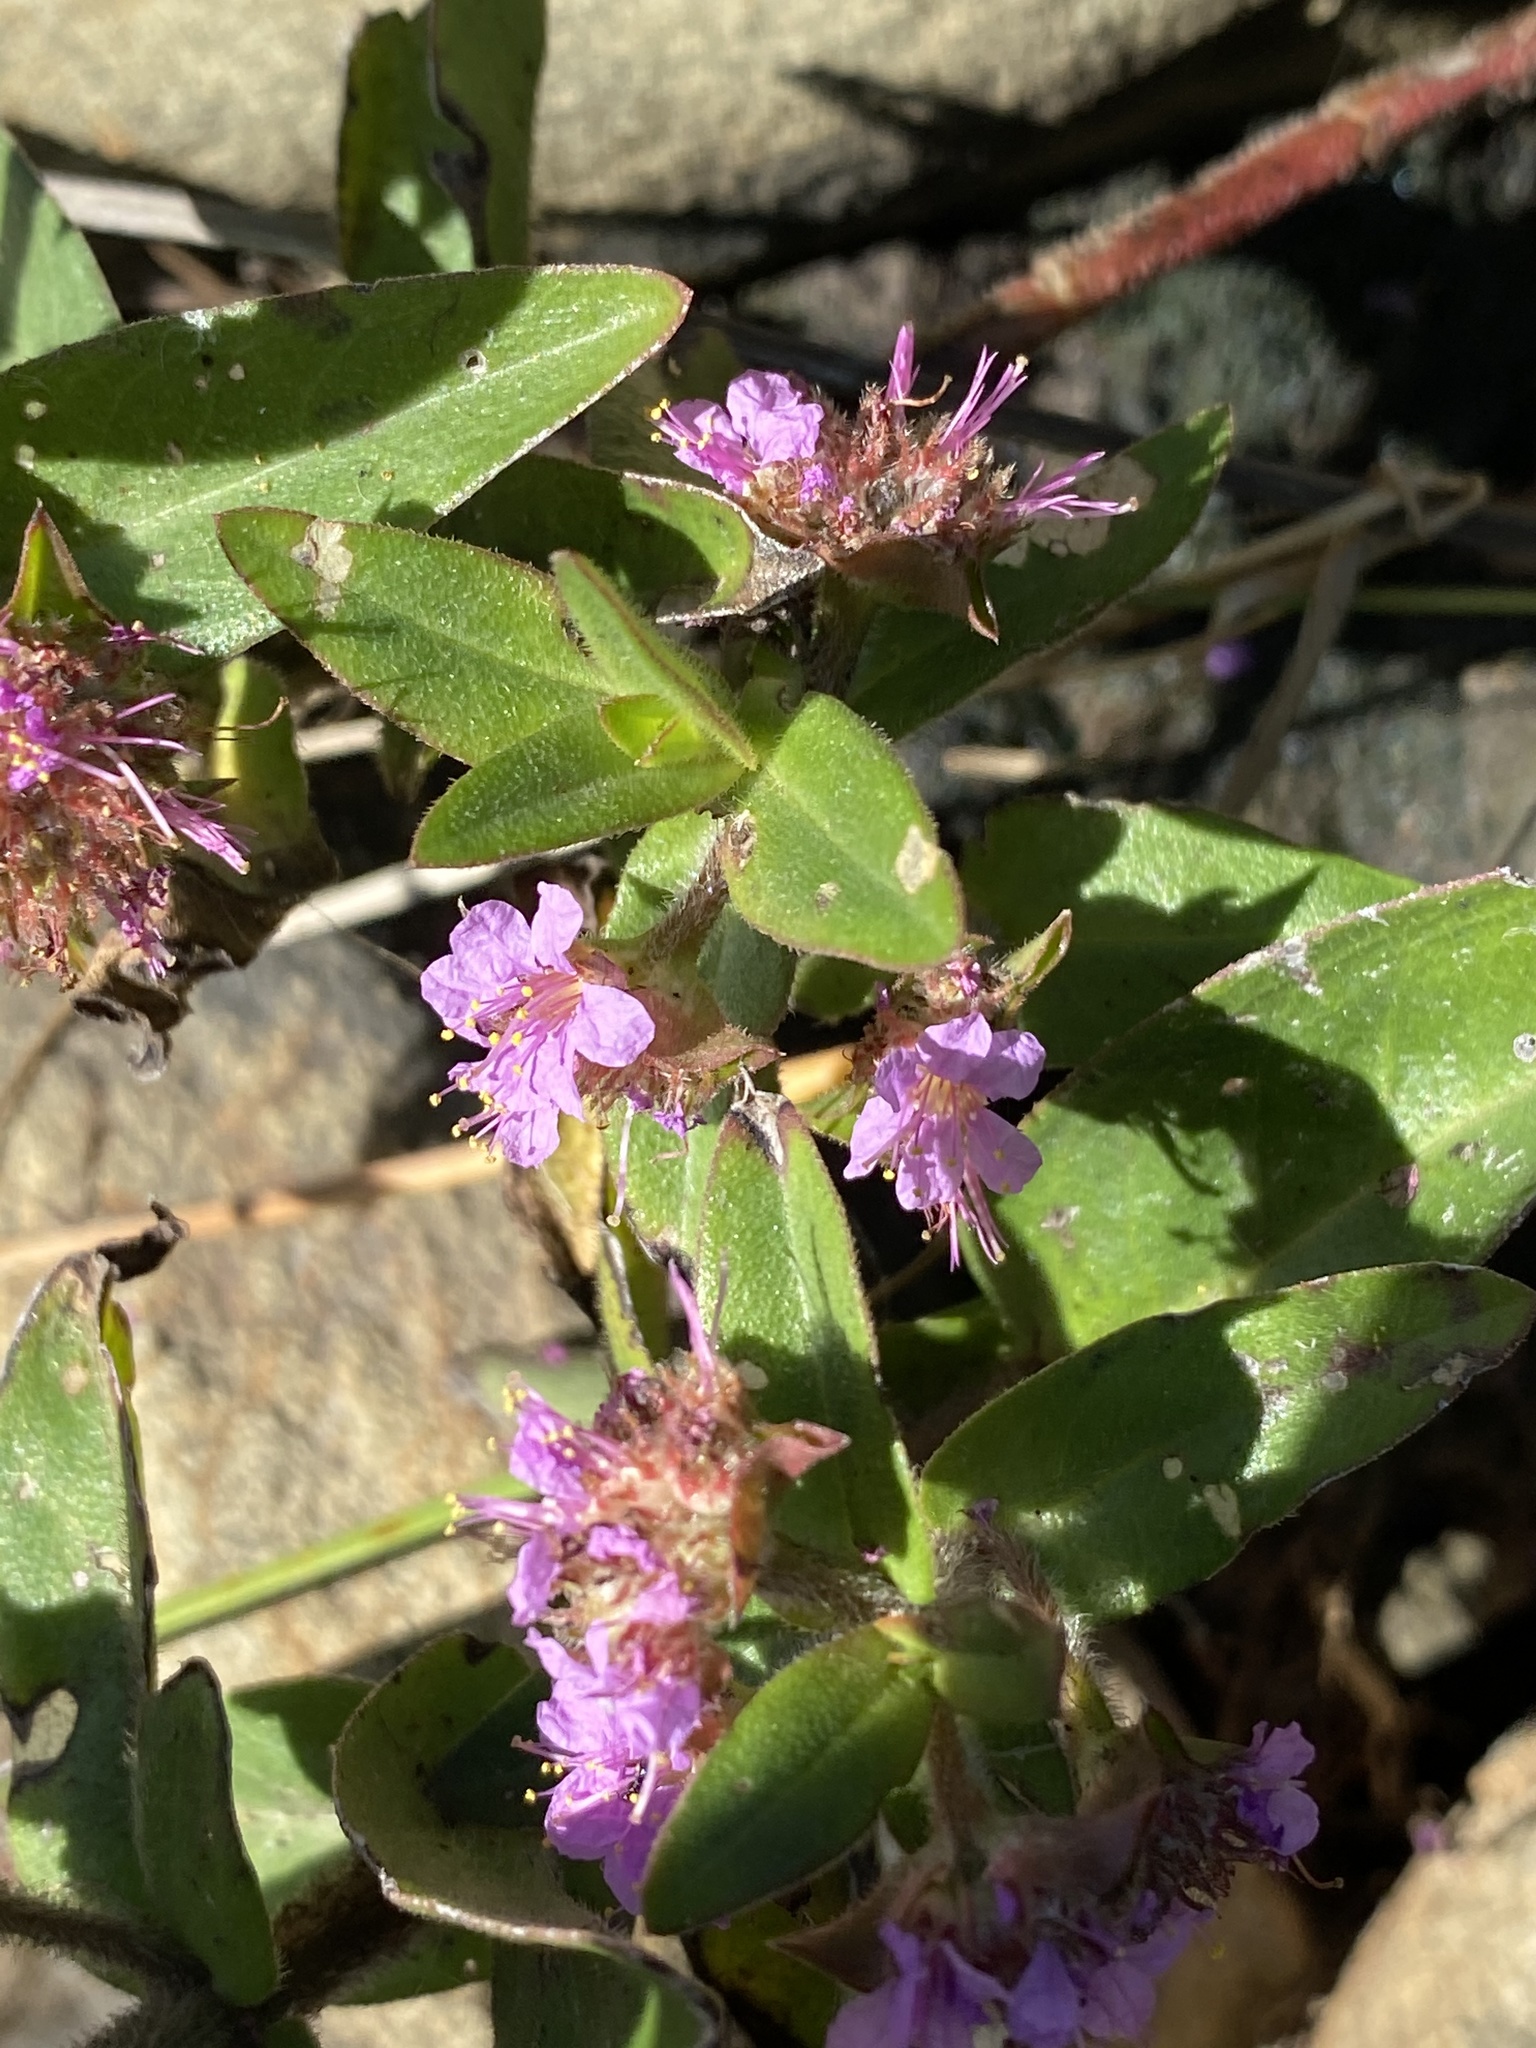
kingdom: Plantae
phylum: Tracheophyta
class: Magnoliopsida
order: Myrtales
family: Lythraceae
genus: Ammannia
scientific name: Ammannia radicans
